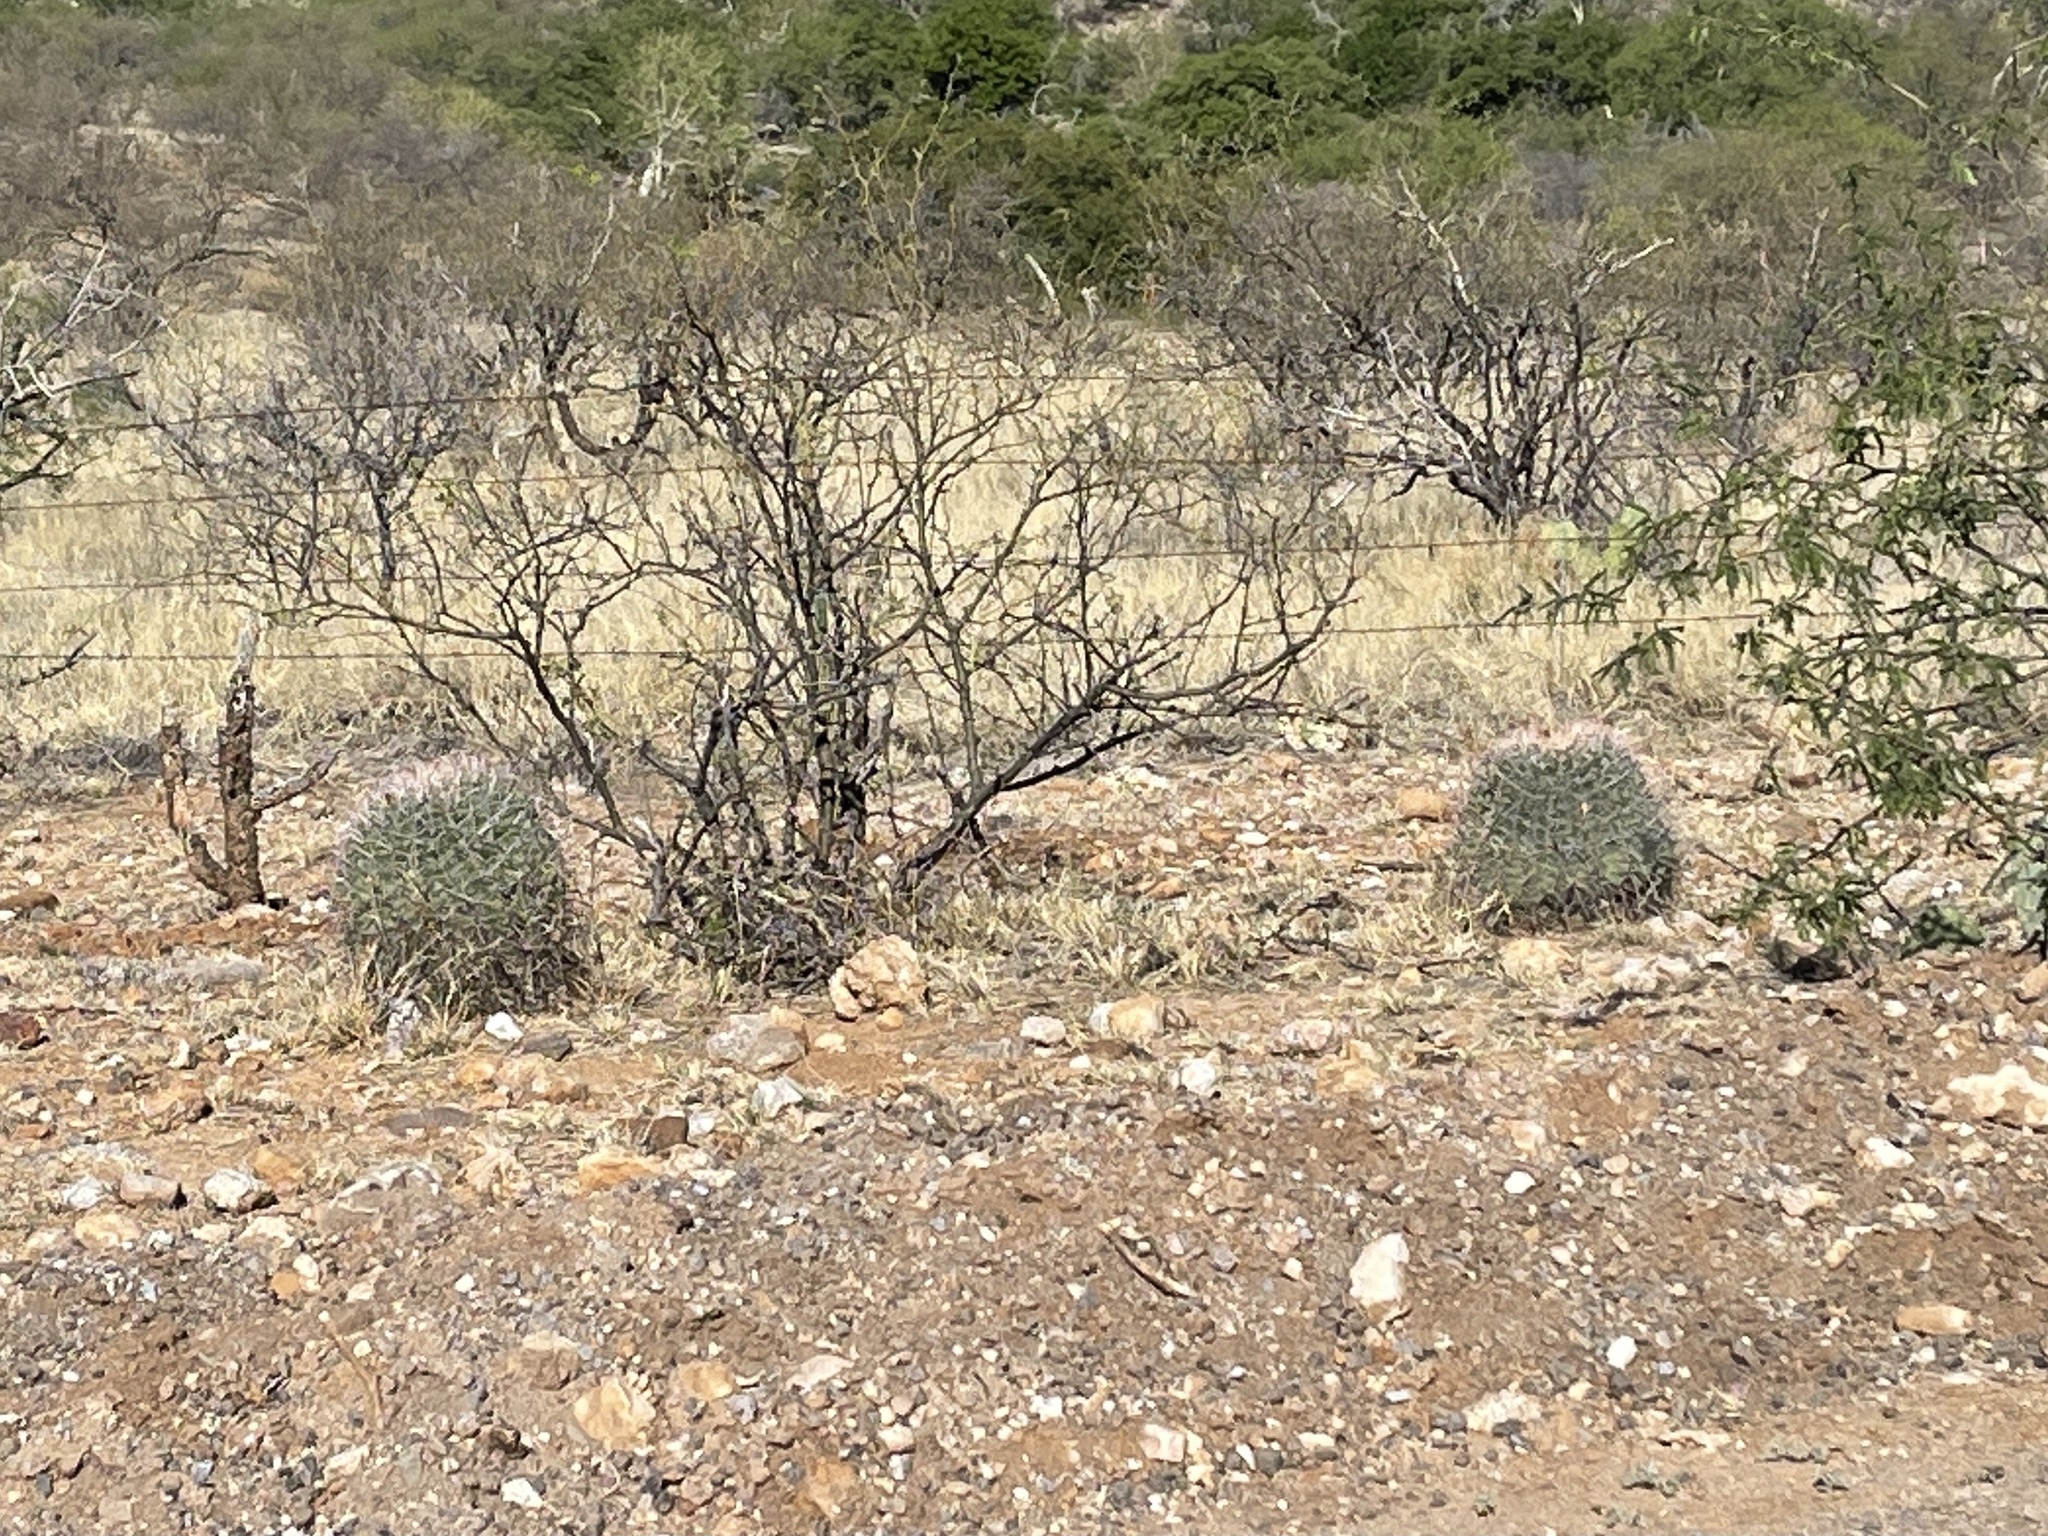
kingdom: Plantae
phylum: Tracheophyta
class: Magnoliopsida
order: Caryophyllales
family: Cactaceae
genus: Ferocactus
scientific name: Ferocactus wislizeni
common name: Candy barrel cactus
